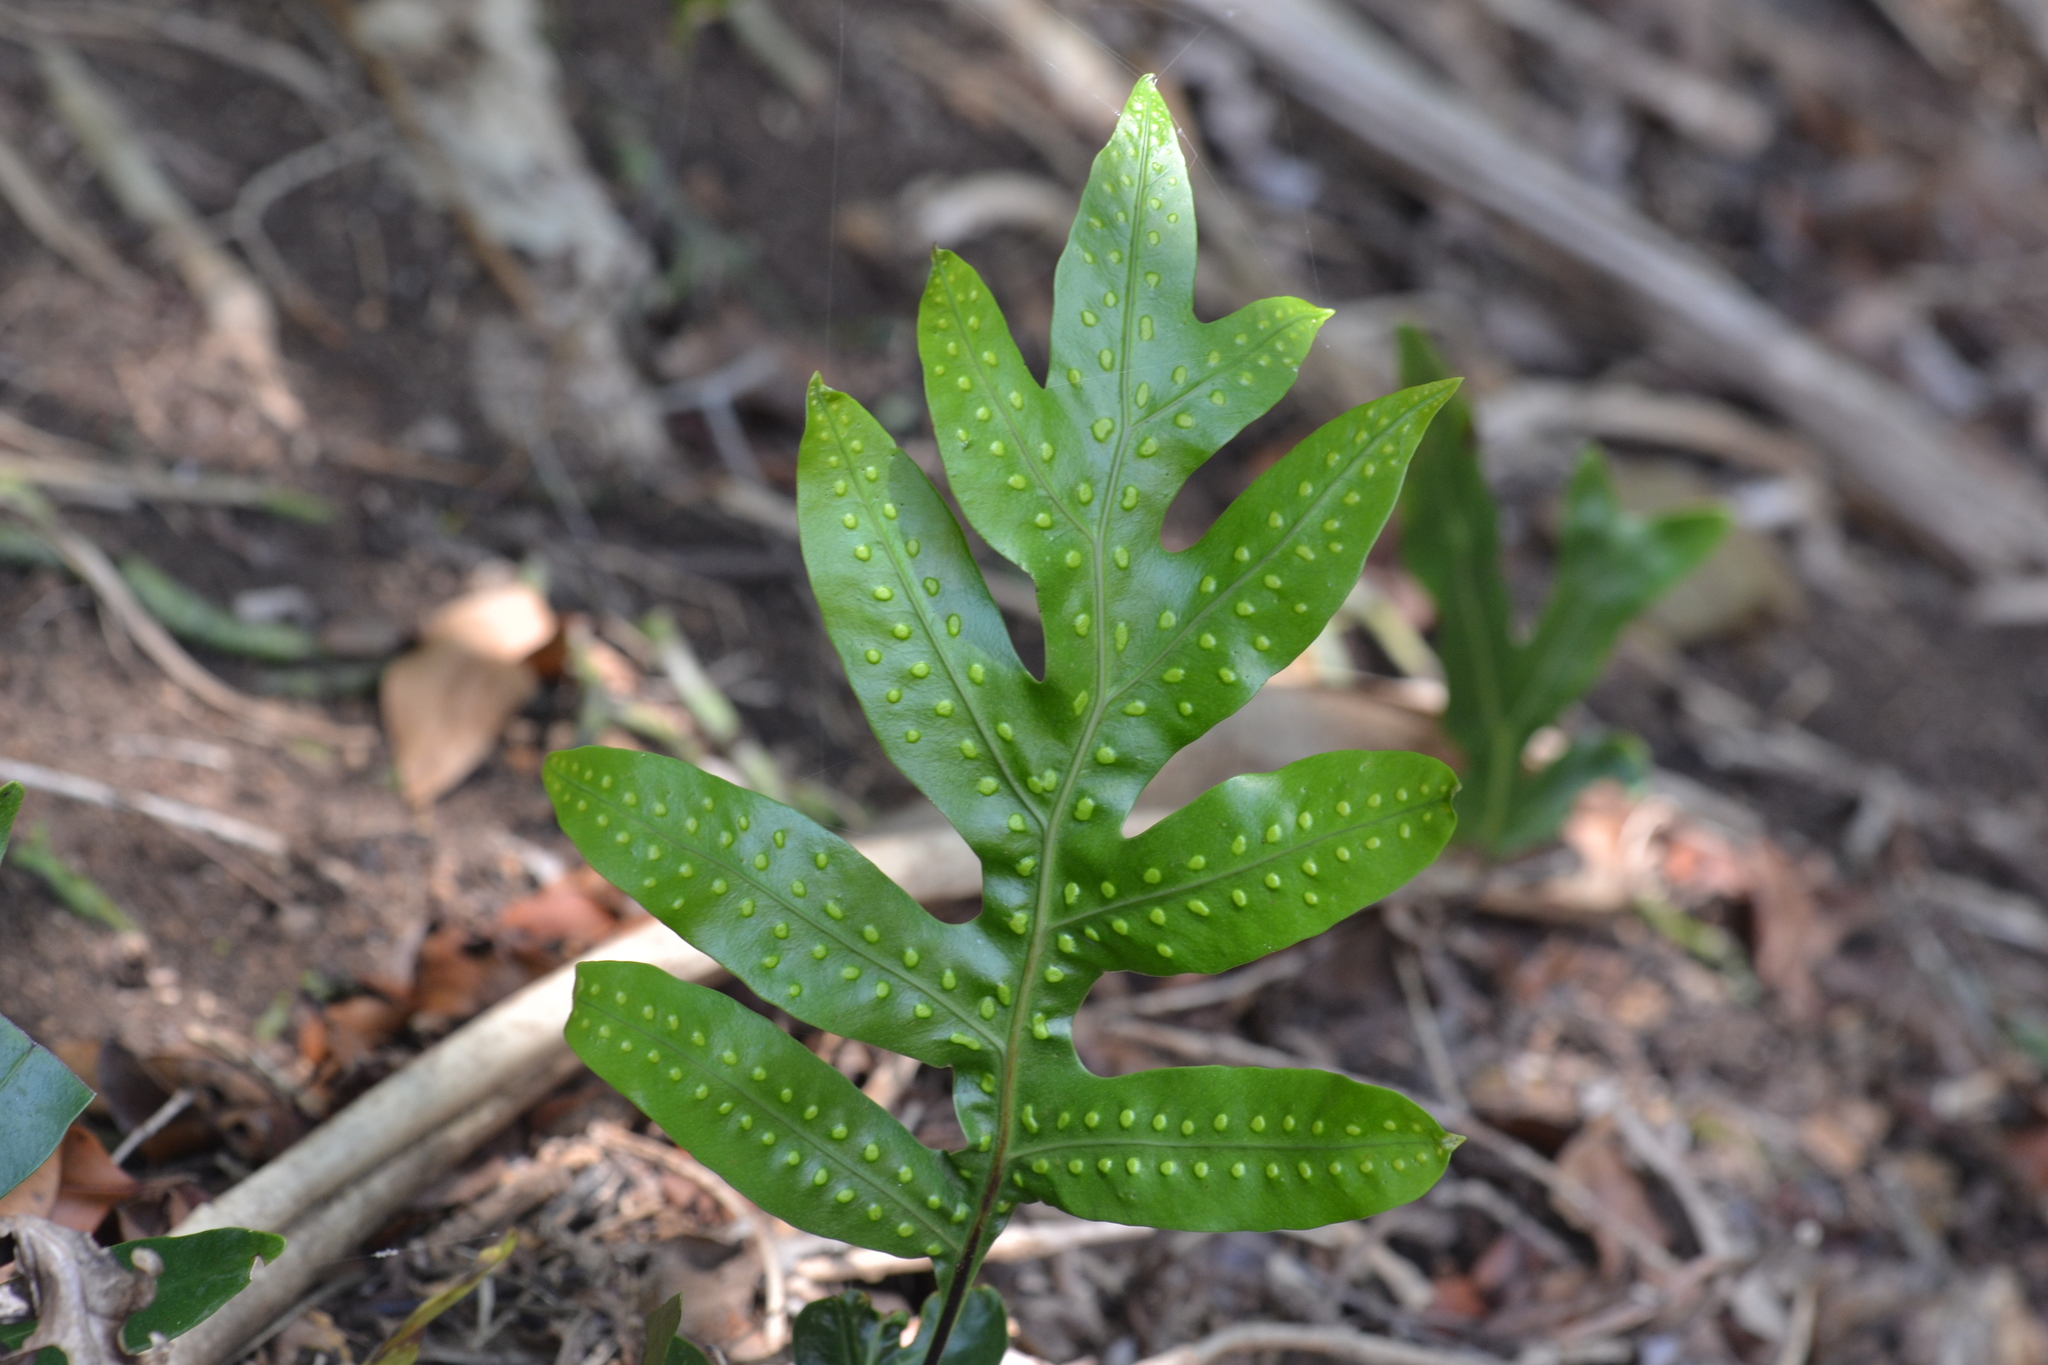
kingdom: Plantae
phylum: Tracheophyta
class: Polypodiopsida
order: Polypodiales
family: Polypodiaceae
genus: Microsorum
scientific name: Microsorum grossum
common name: Musk fern
